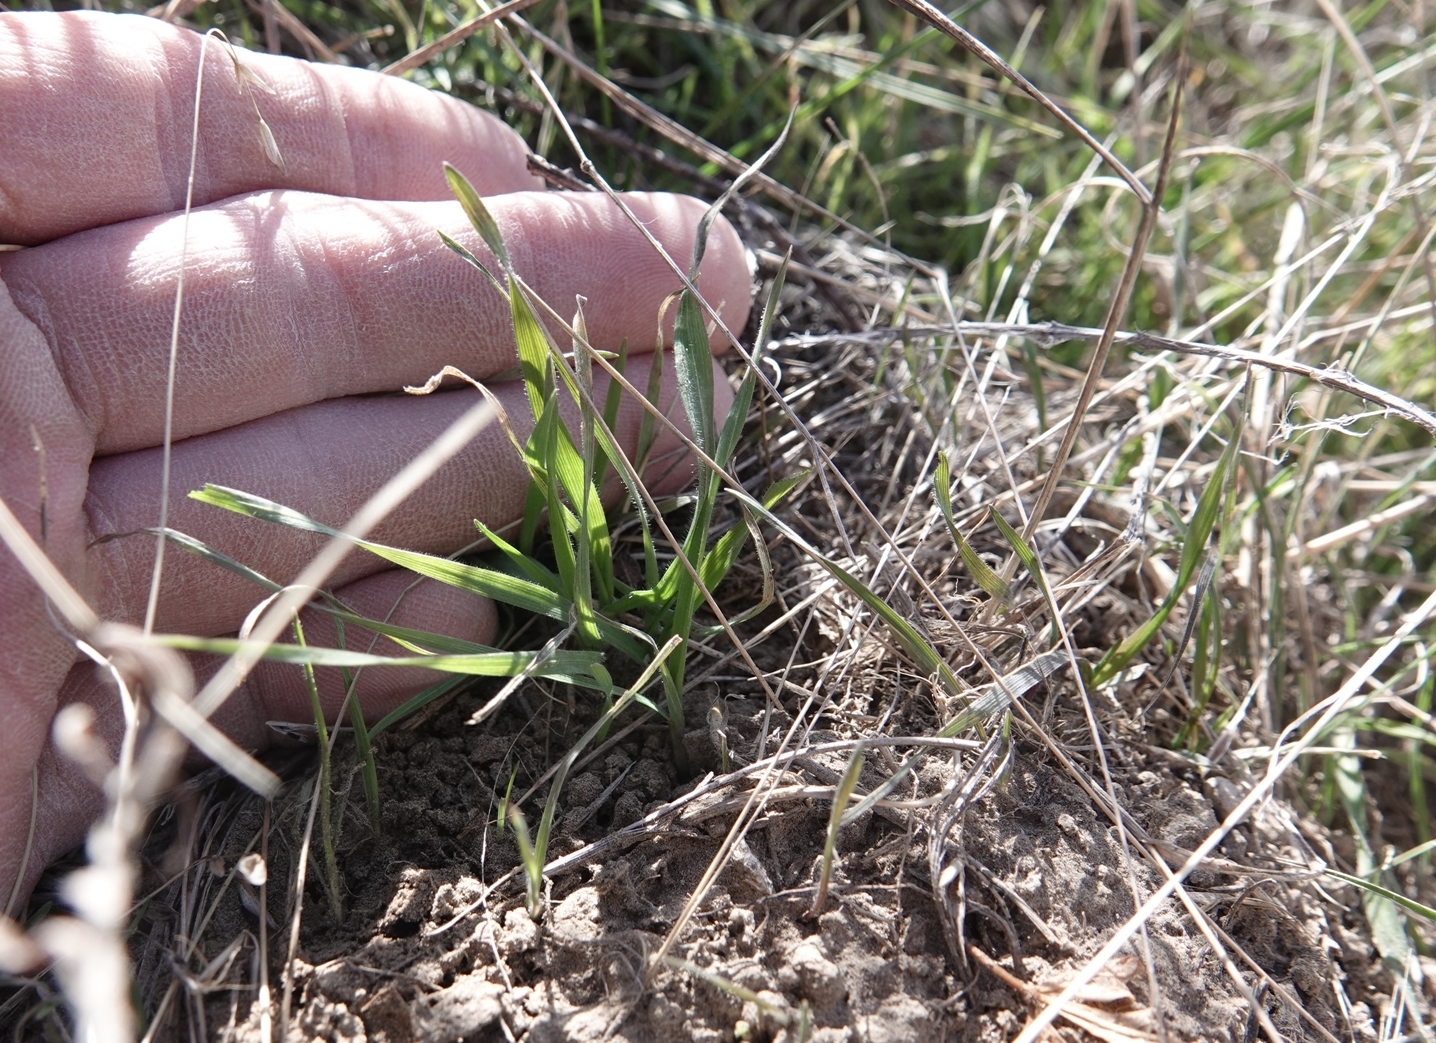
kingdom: Plantae
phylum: Tracheophyta
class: Liliopsida
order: Poales
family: Poaceae
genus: Bromus
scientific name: Bromus tectorum
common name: Cheatgrass
